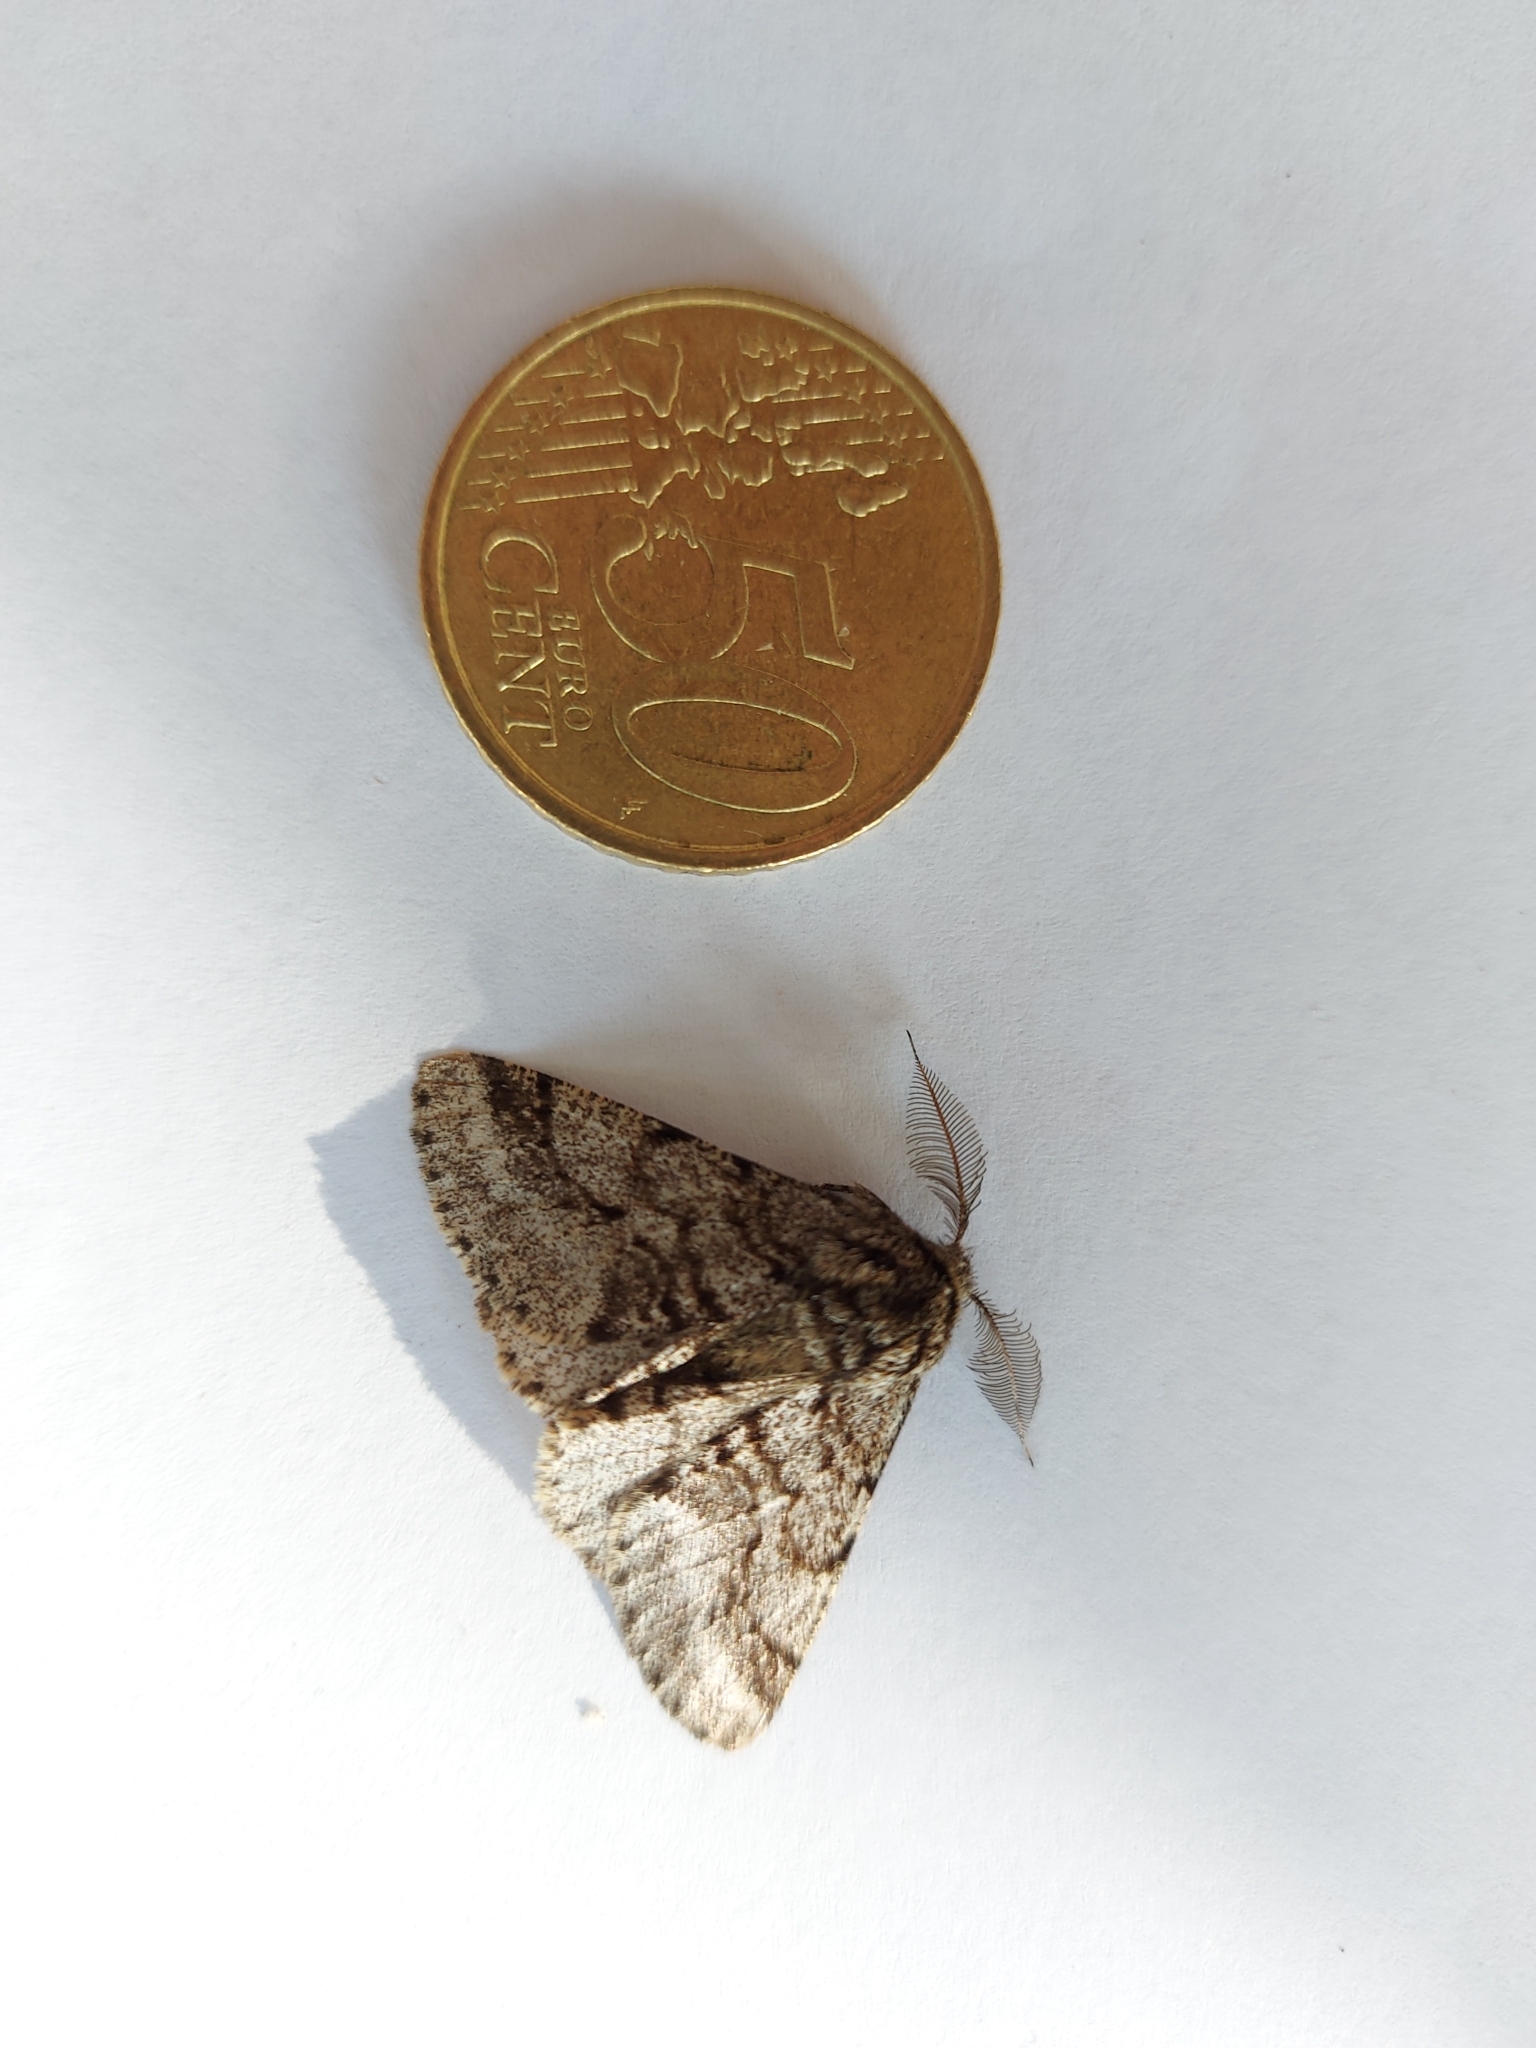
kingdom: Animalia
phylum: Arthropoda
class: Insecta
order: Lepidoptera
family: Geometridae
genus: Lycia
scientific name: Lycia hirtaria
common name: Brindled beauty
